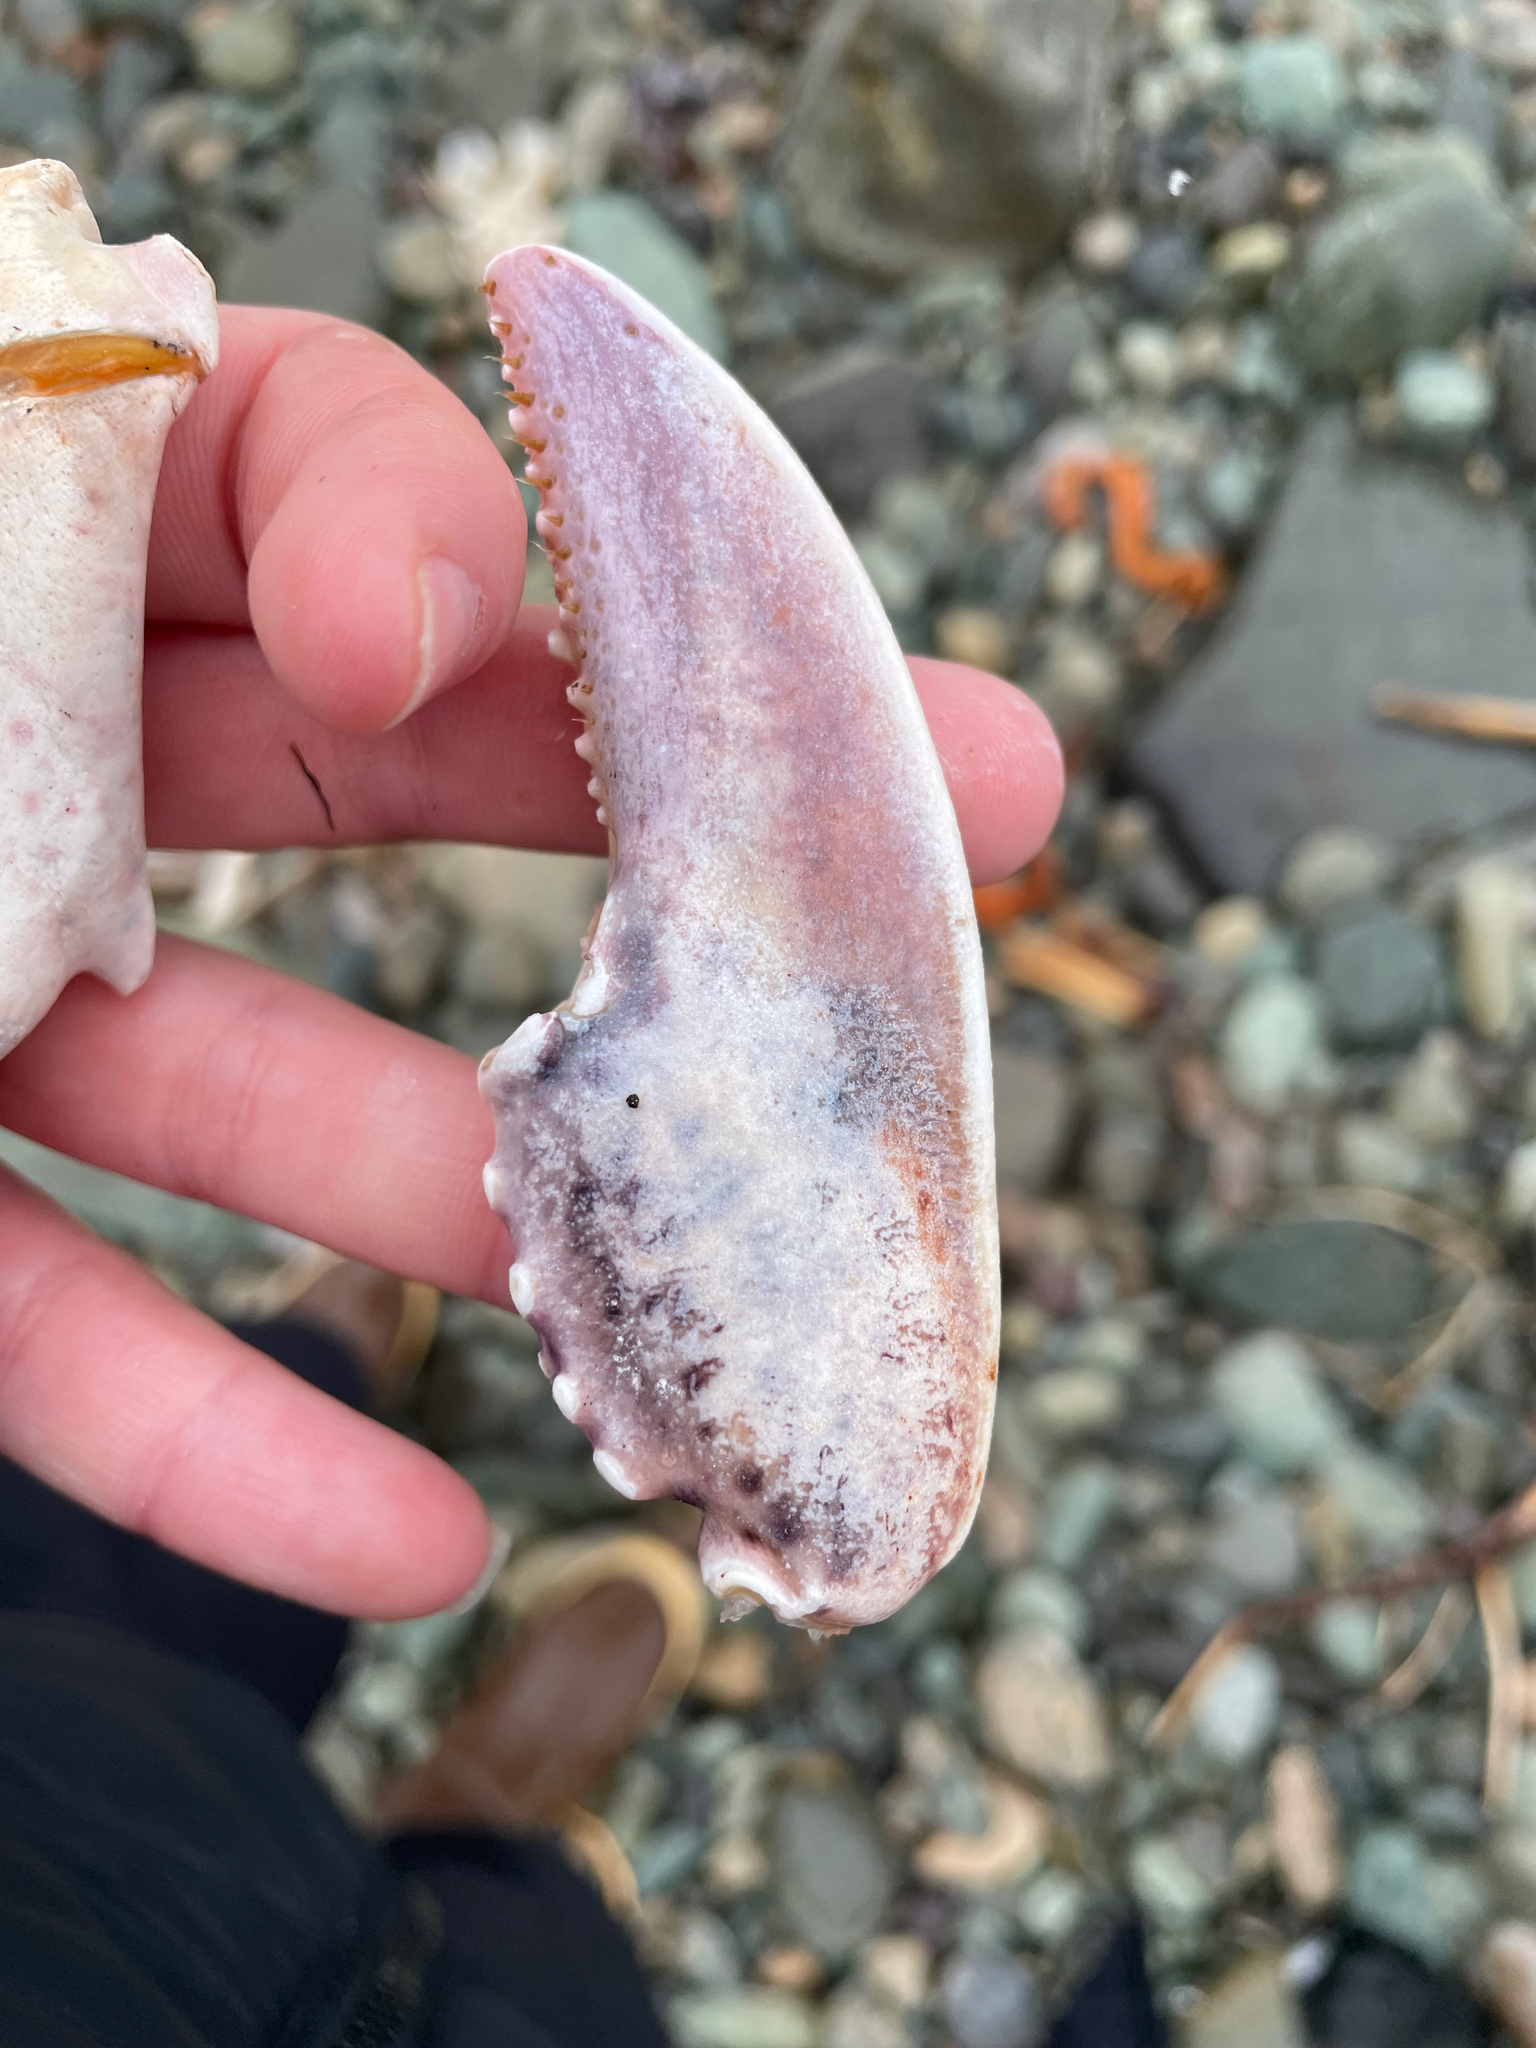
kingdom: Animalia
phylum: Arthropoda
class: Malacostraca
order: Decapoda
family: Nephropidae
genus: Homarus
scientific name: Homarus americanus
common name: American lobster
